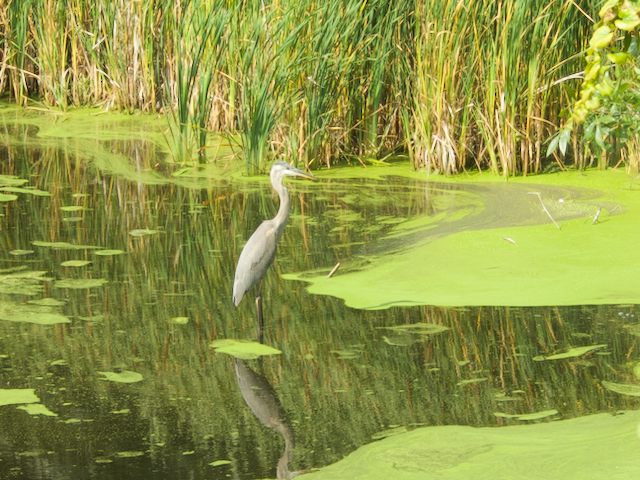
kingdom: Animalia
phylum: Chordata
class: Aves
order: Pelecaniformes
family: Ardeidae
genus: Ardea
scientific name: Ardea herodias
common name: Great blue heron
